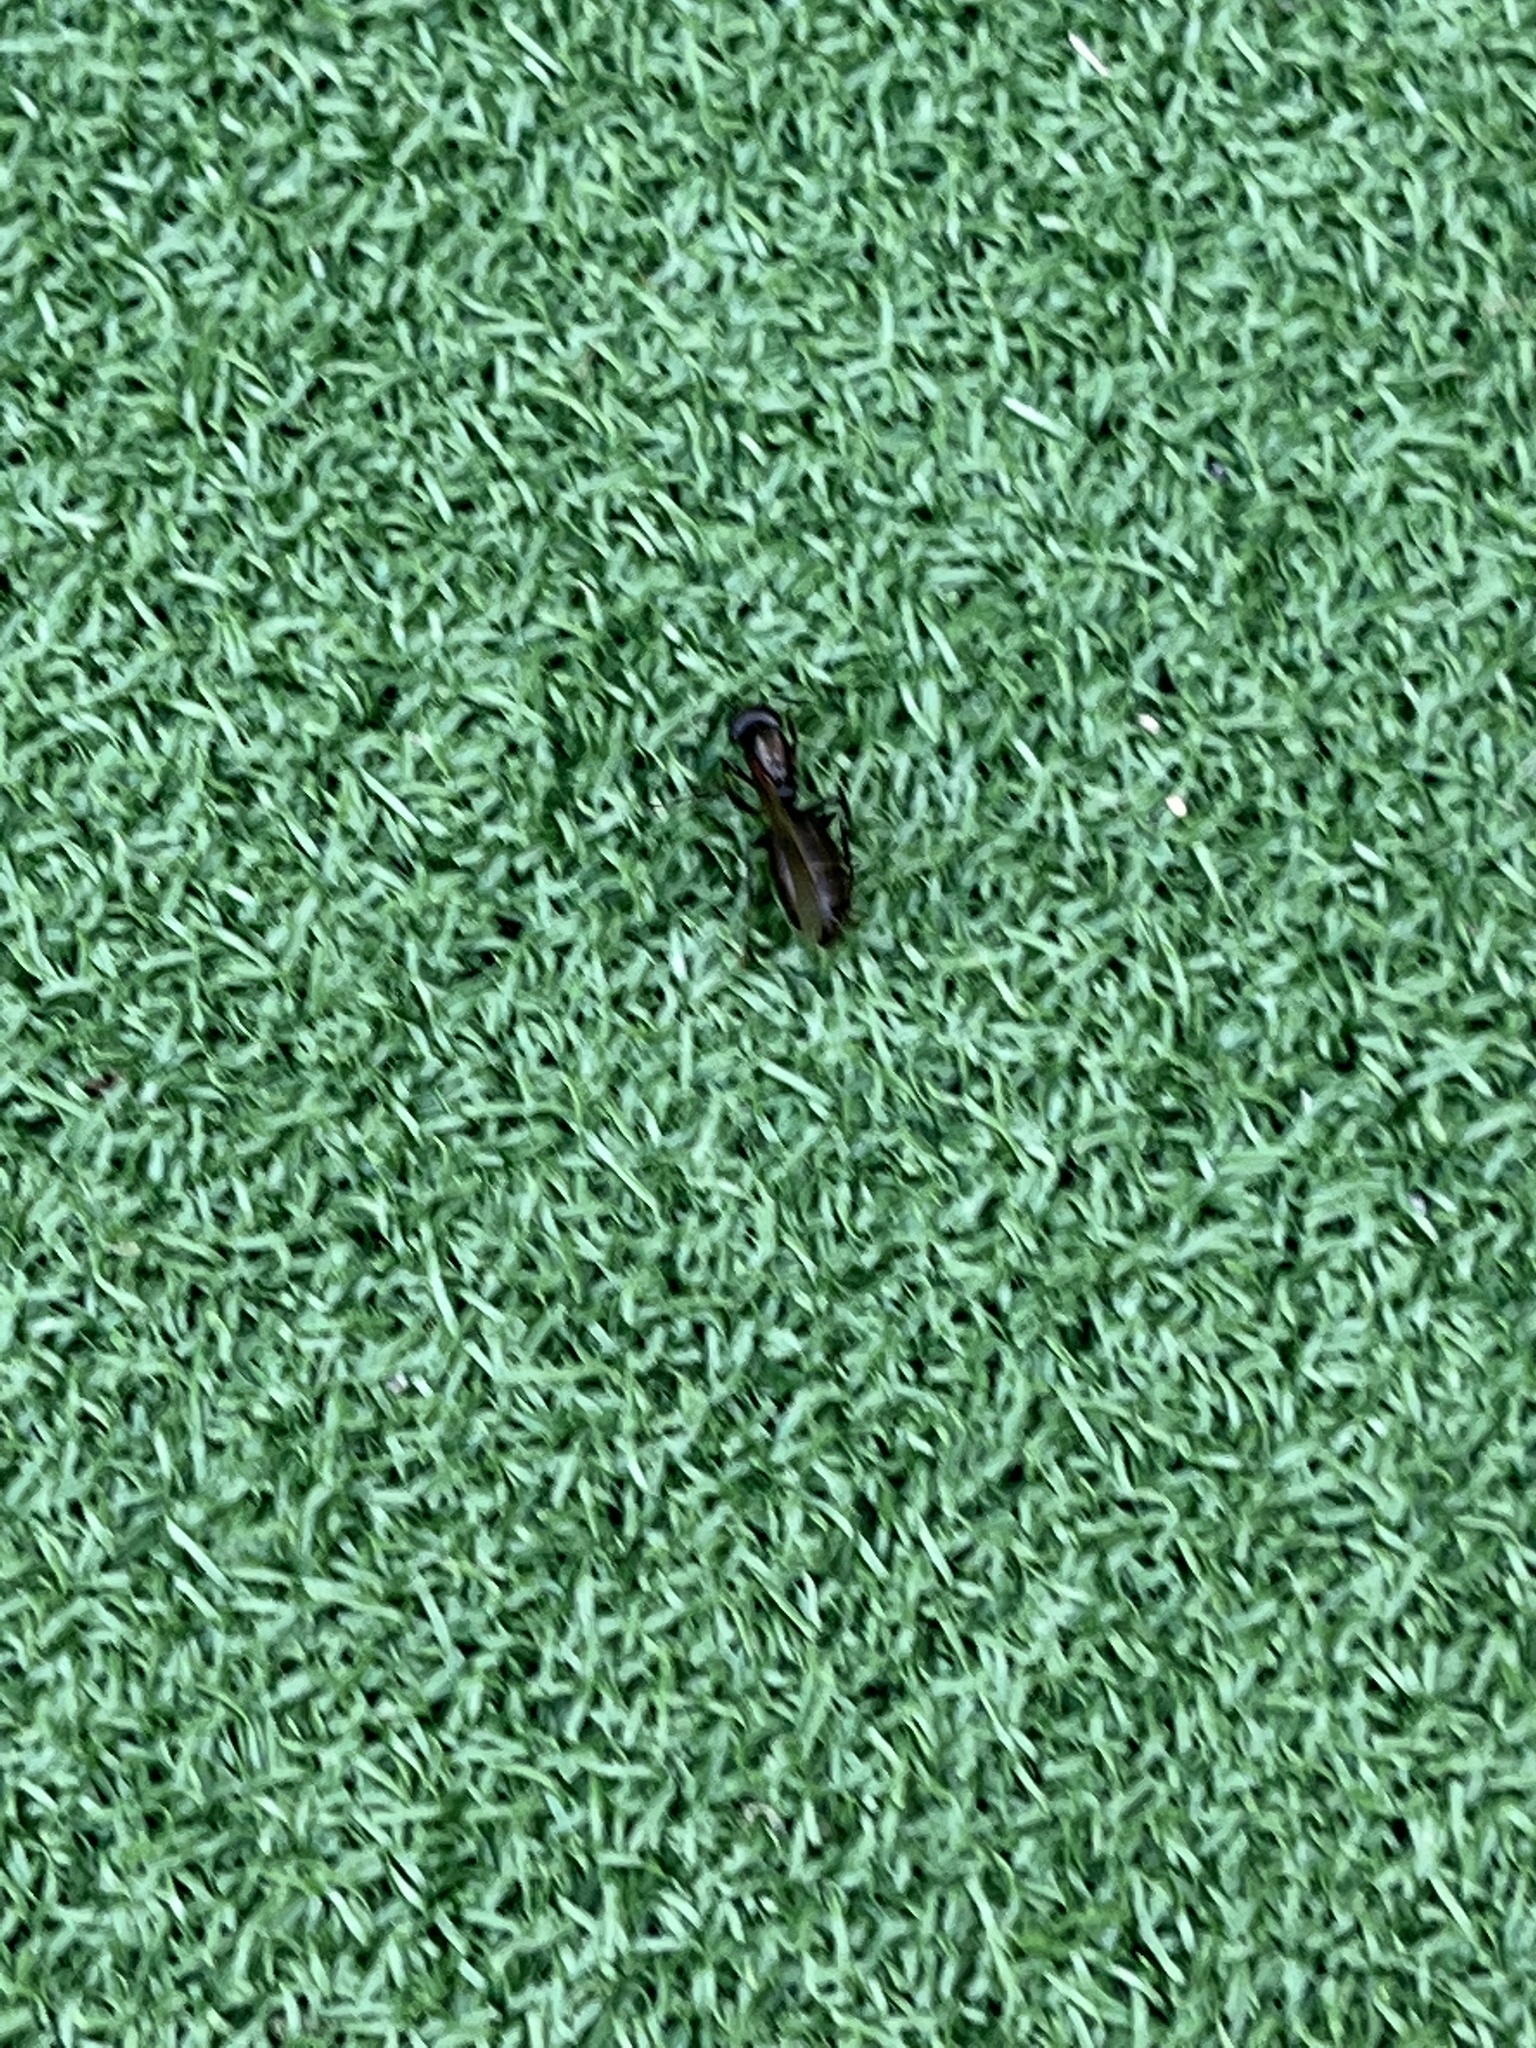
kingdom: Animalia
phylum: Arthropoda
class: Insecta
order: Hymenoptera
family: Formicidae
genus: Camponotus
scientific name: Camponotus novaeboracensis
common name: New york carpenter ant
